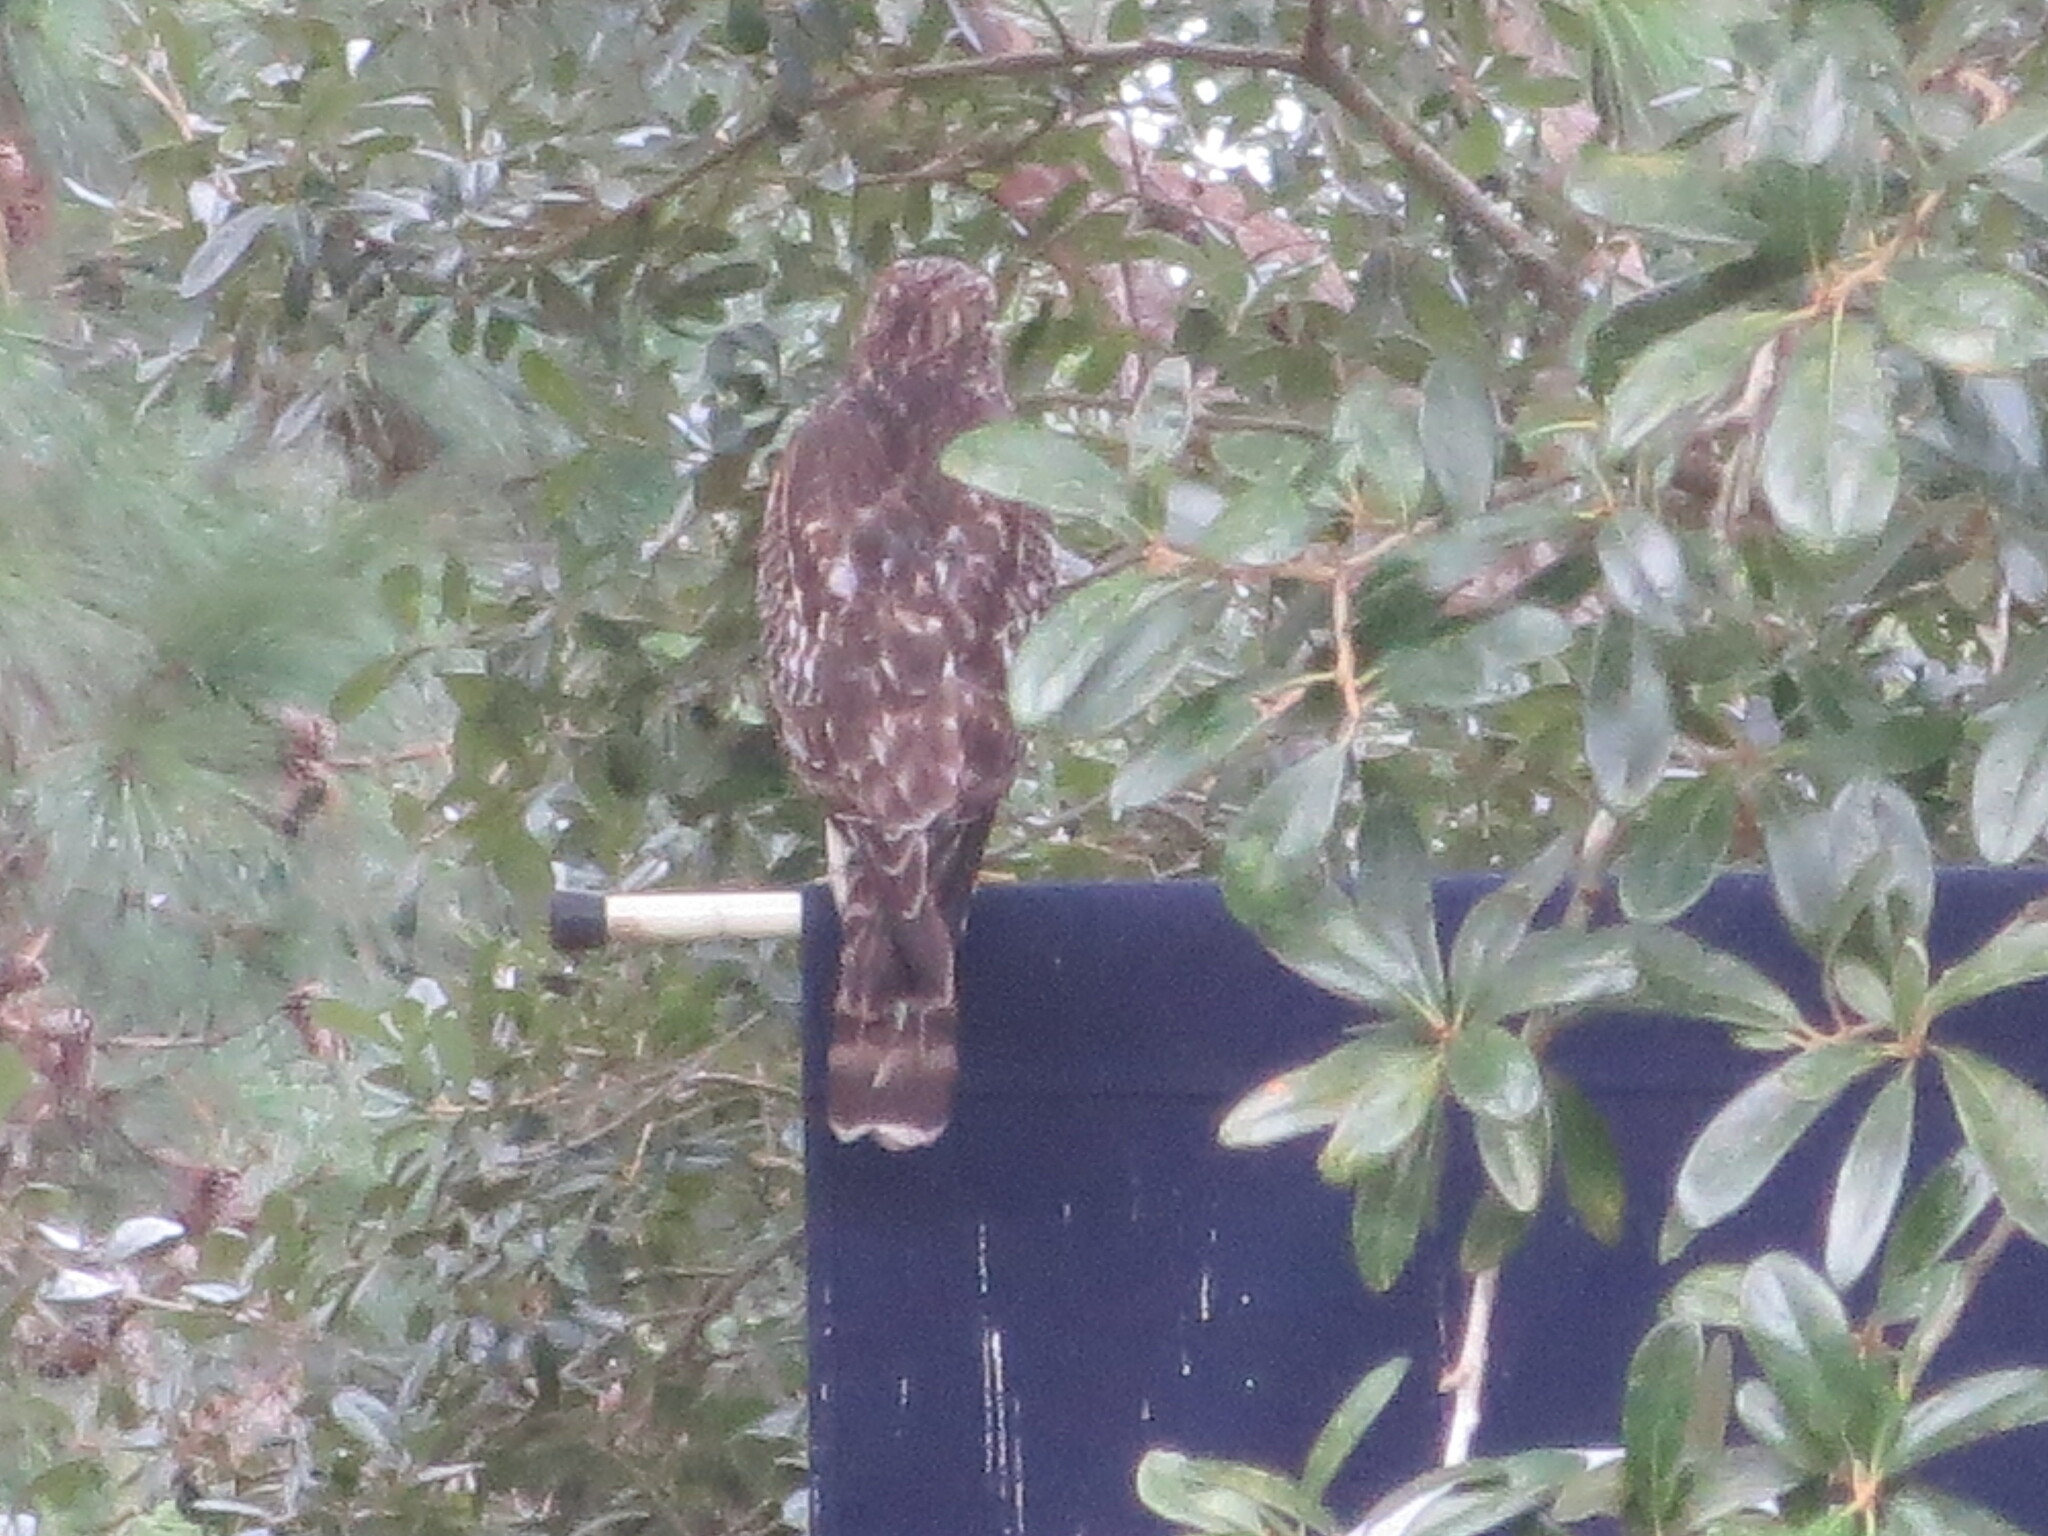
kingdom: Animalia
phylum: Chordata
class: Aves
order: Accipitriformes
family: Accipitridae
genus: Buteo
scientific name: Buteo lineatus
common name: Red-shouldered hawk
